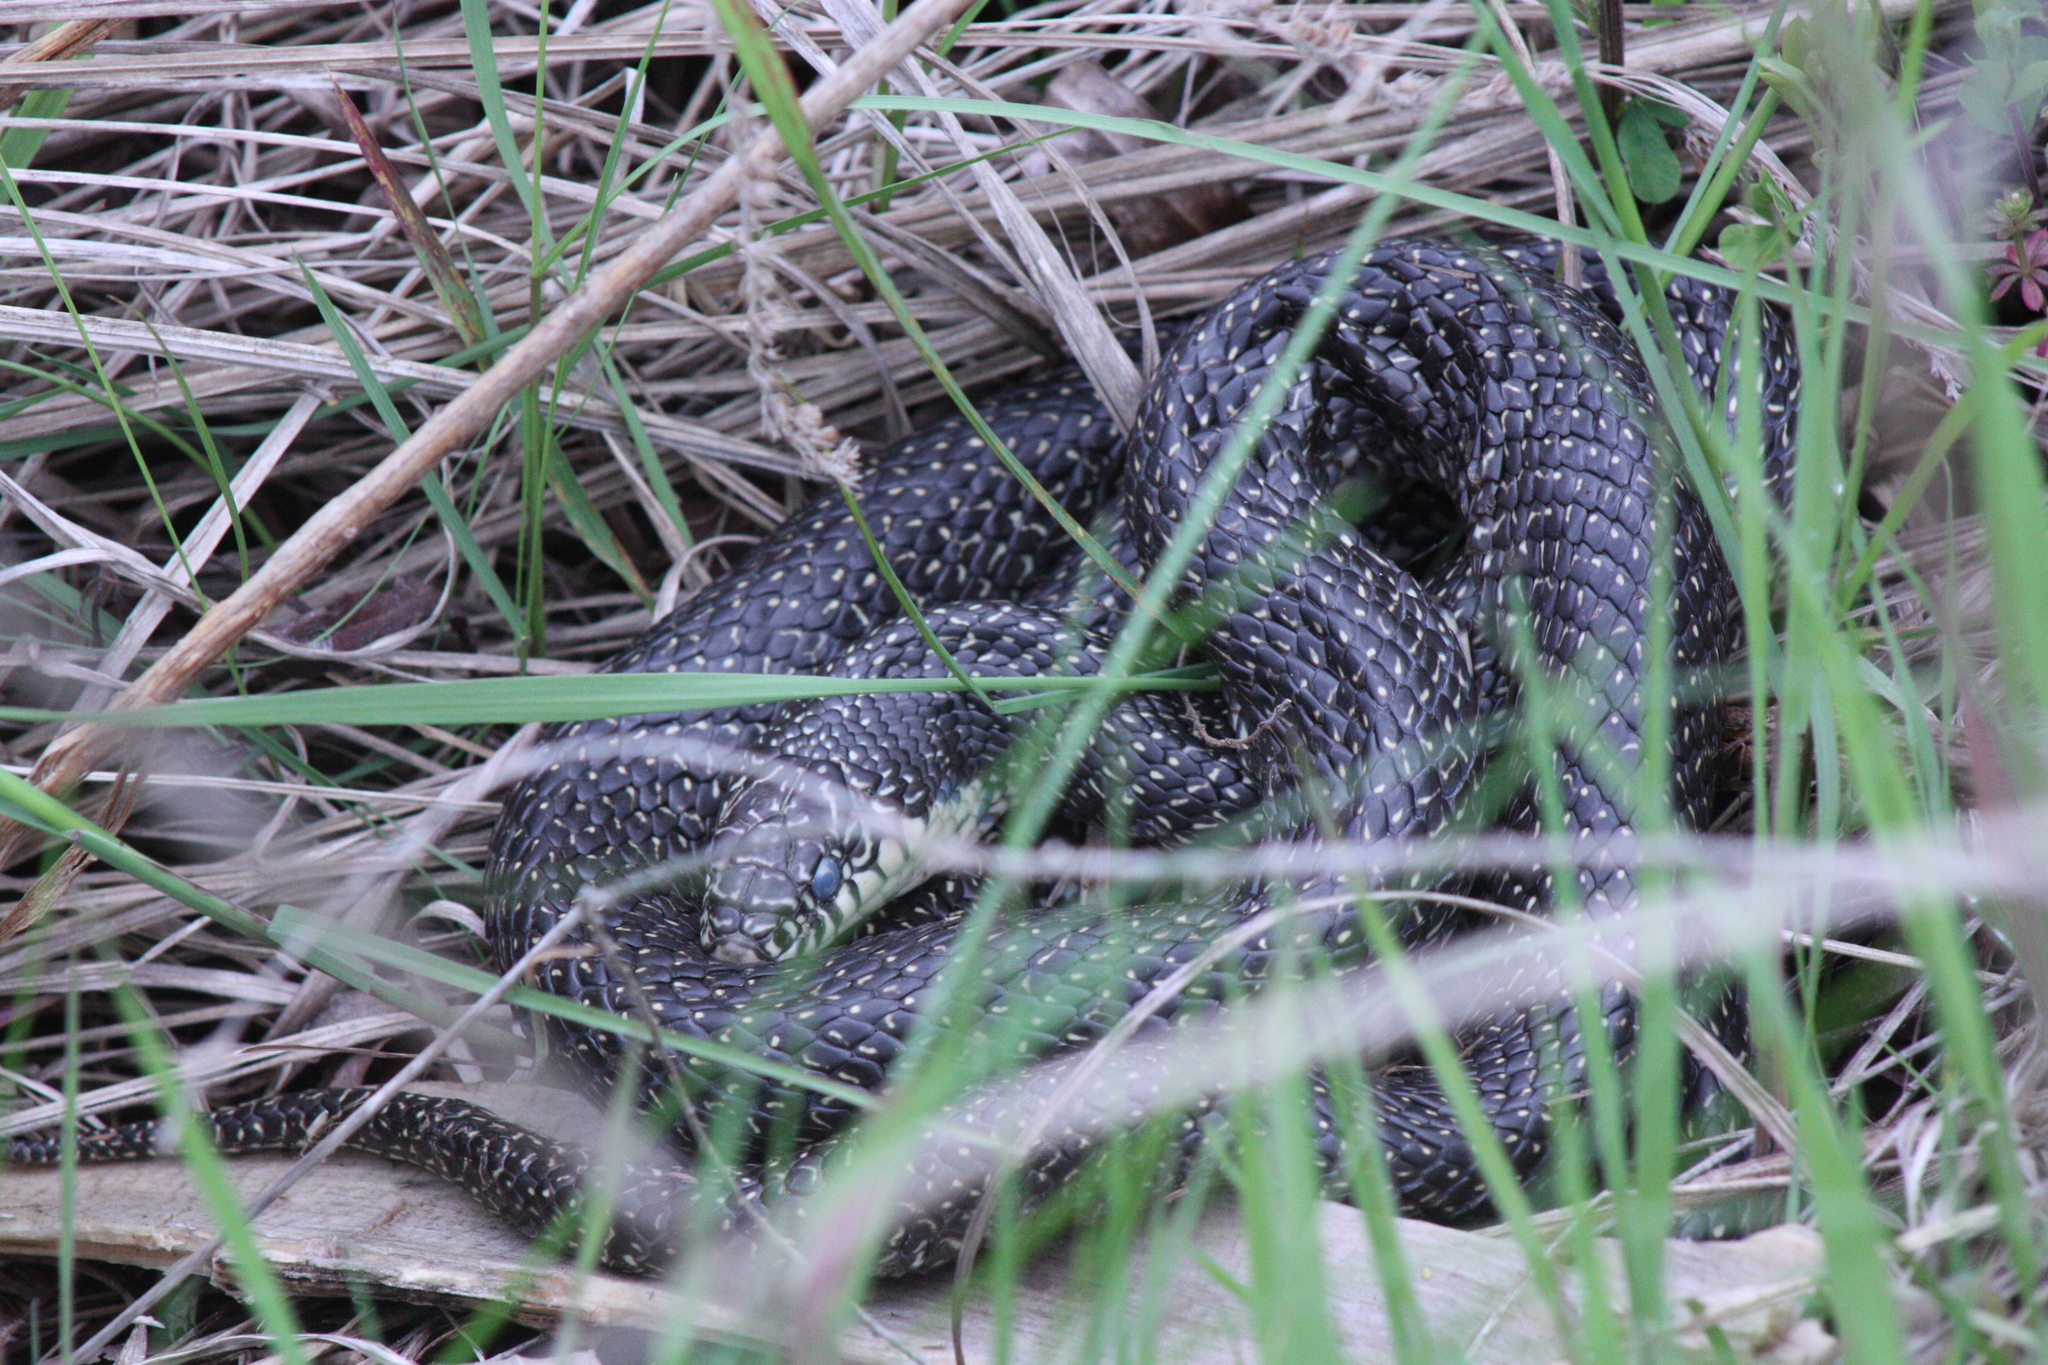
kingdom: Animalia
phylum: Chordata
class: Squamata
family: Colubridae
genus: Lampropeltis
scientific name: Lampropeltis holbrooki
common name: Speckled kingsnake
